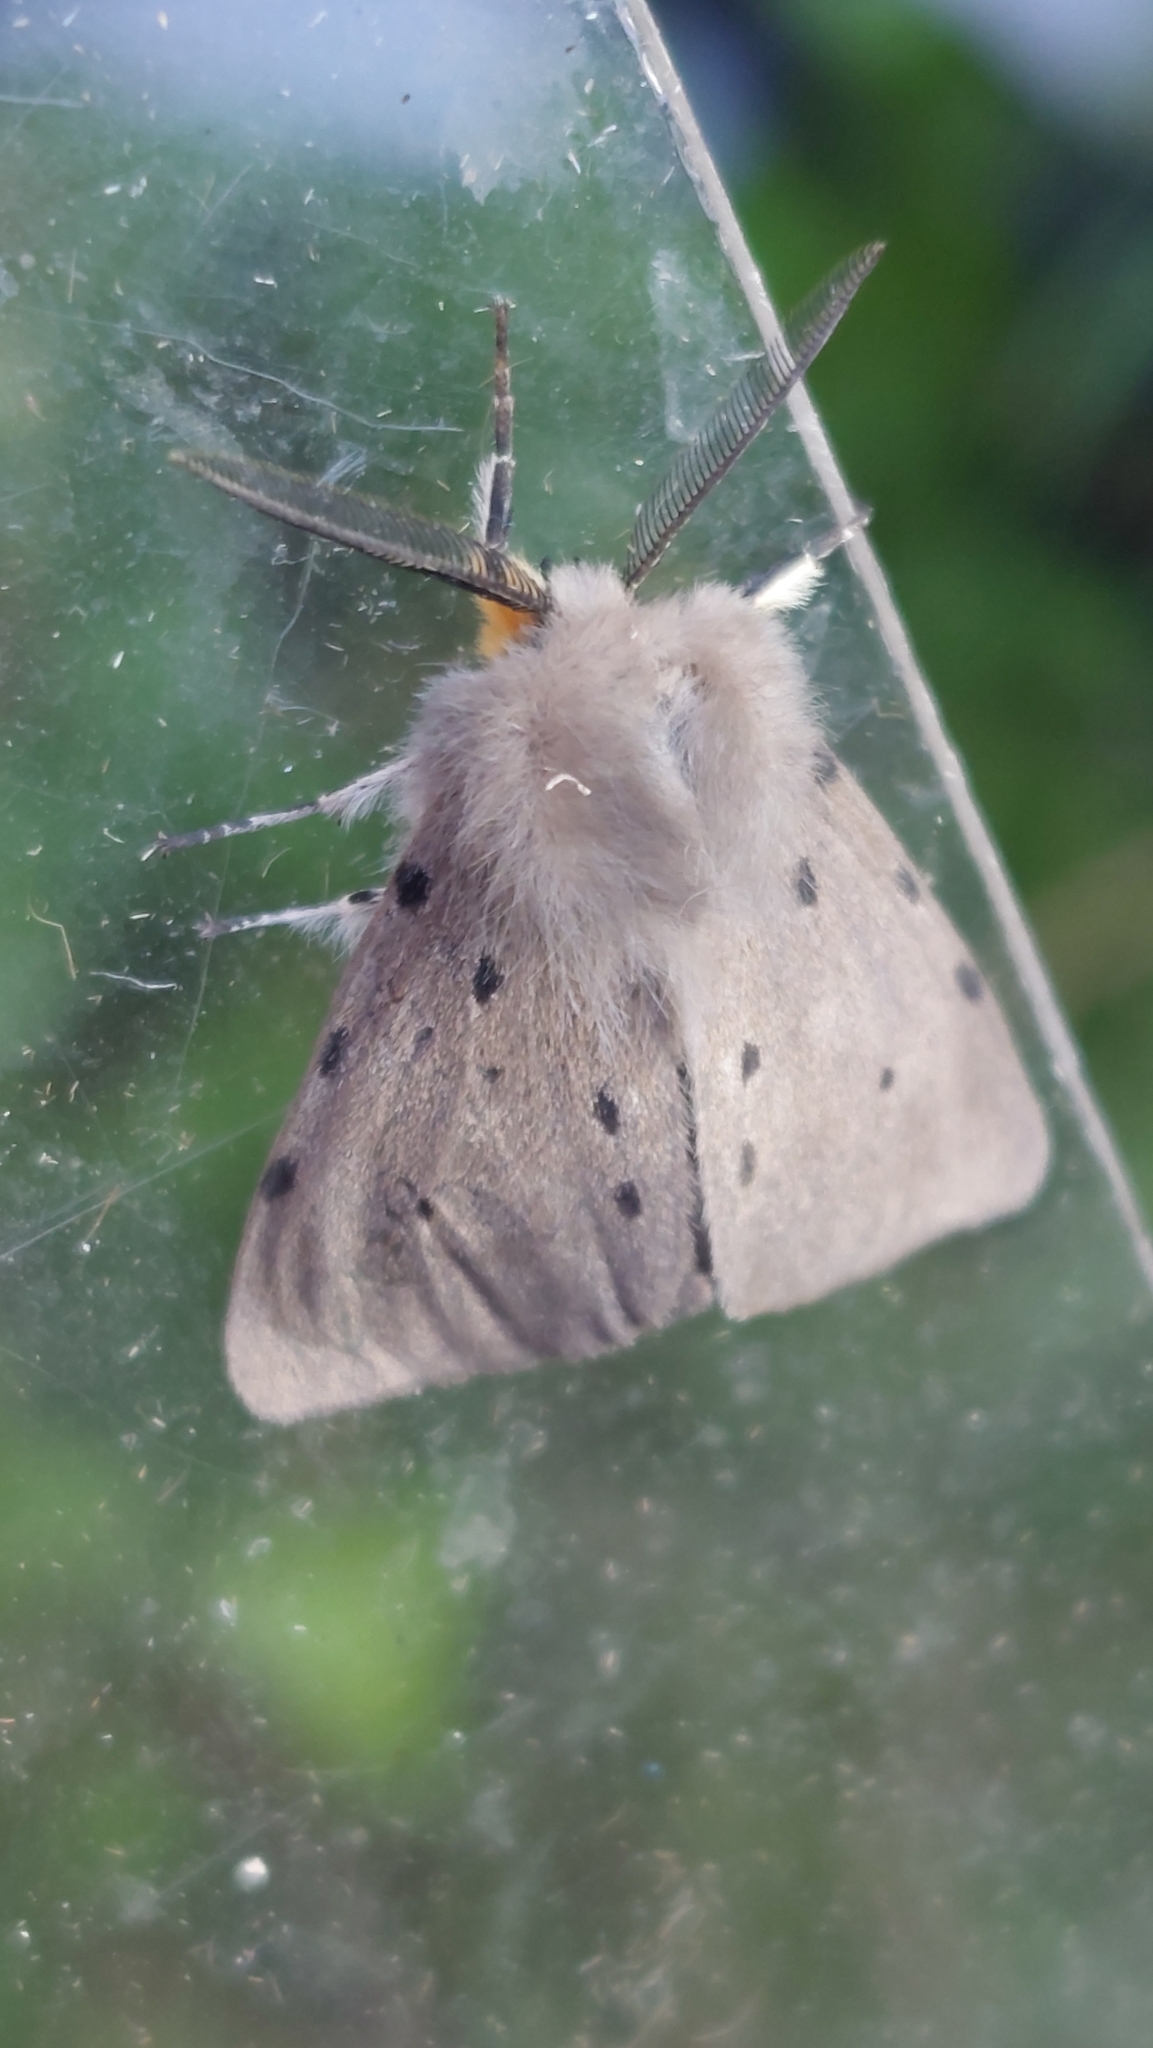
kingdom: Animalia
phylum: Arthropoda
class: Insecta
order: Lepidoptera
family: Erebidae
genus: Diaphora
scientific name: Diaphora mendica
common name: Muslin moth
